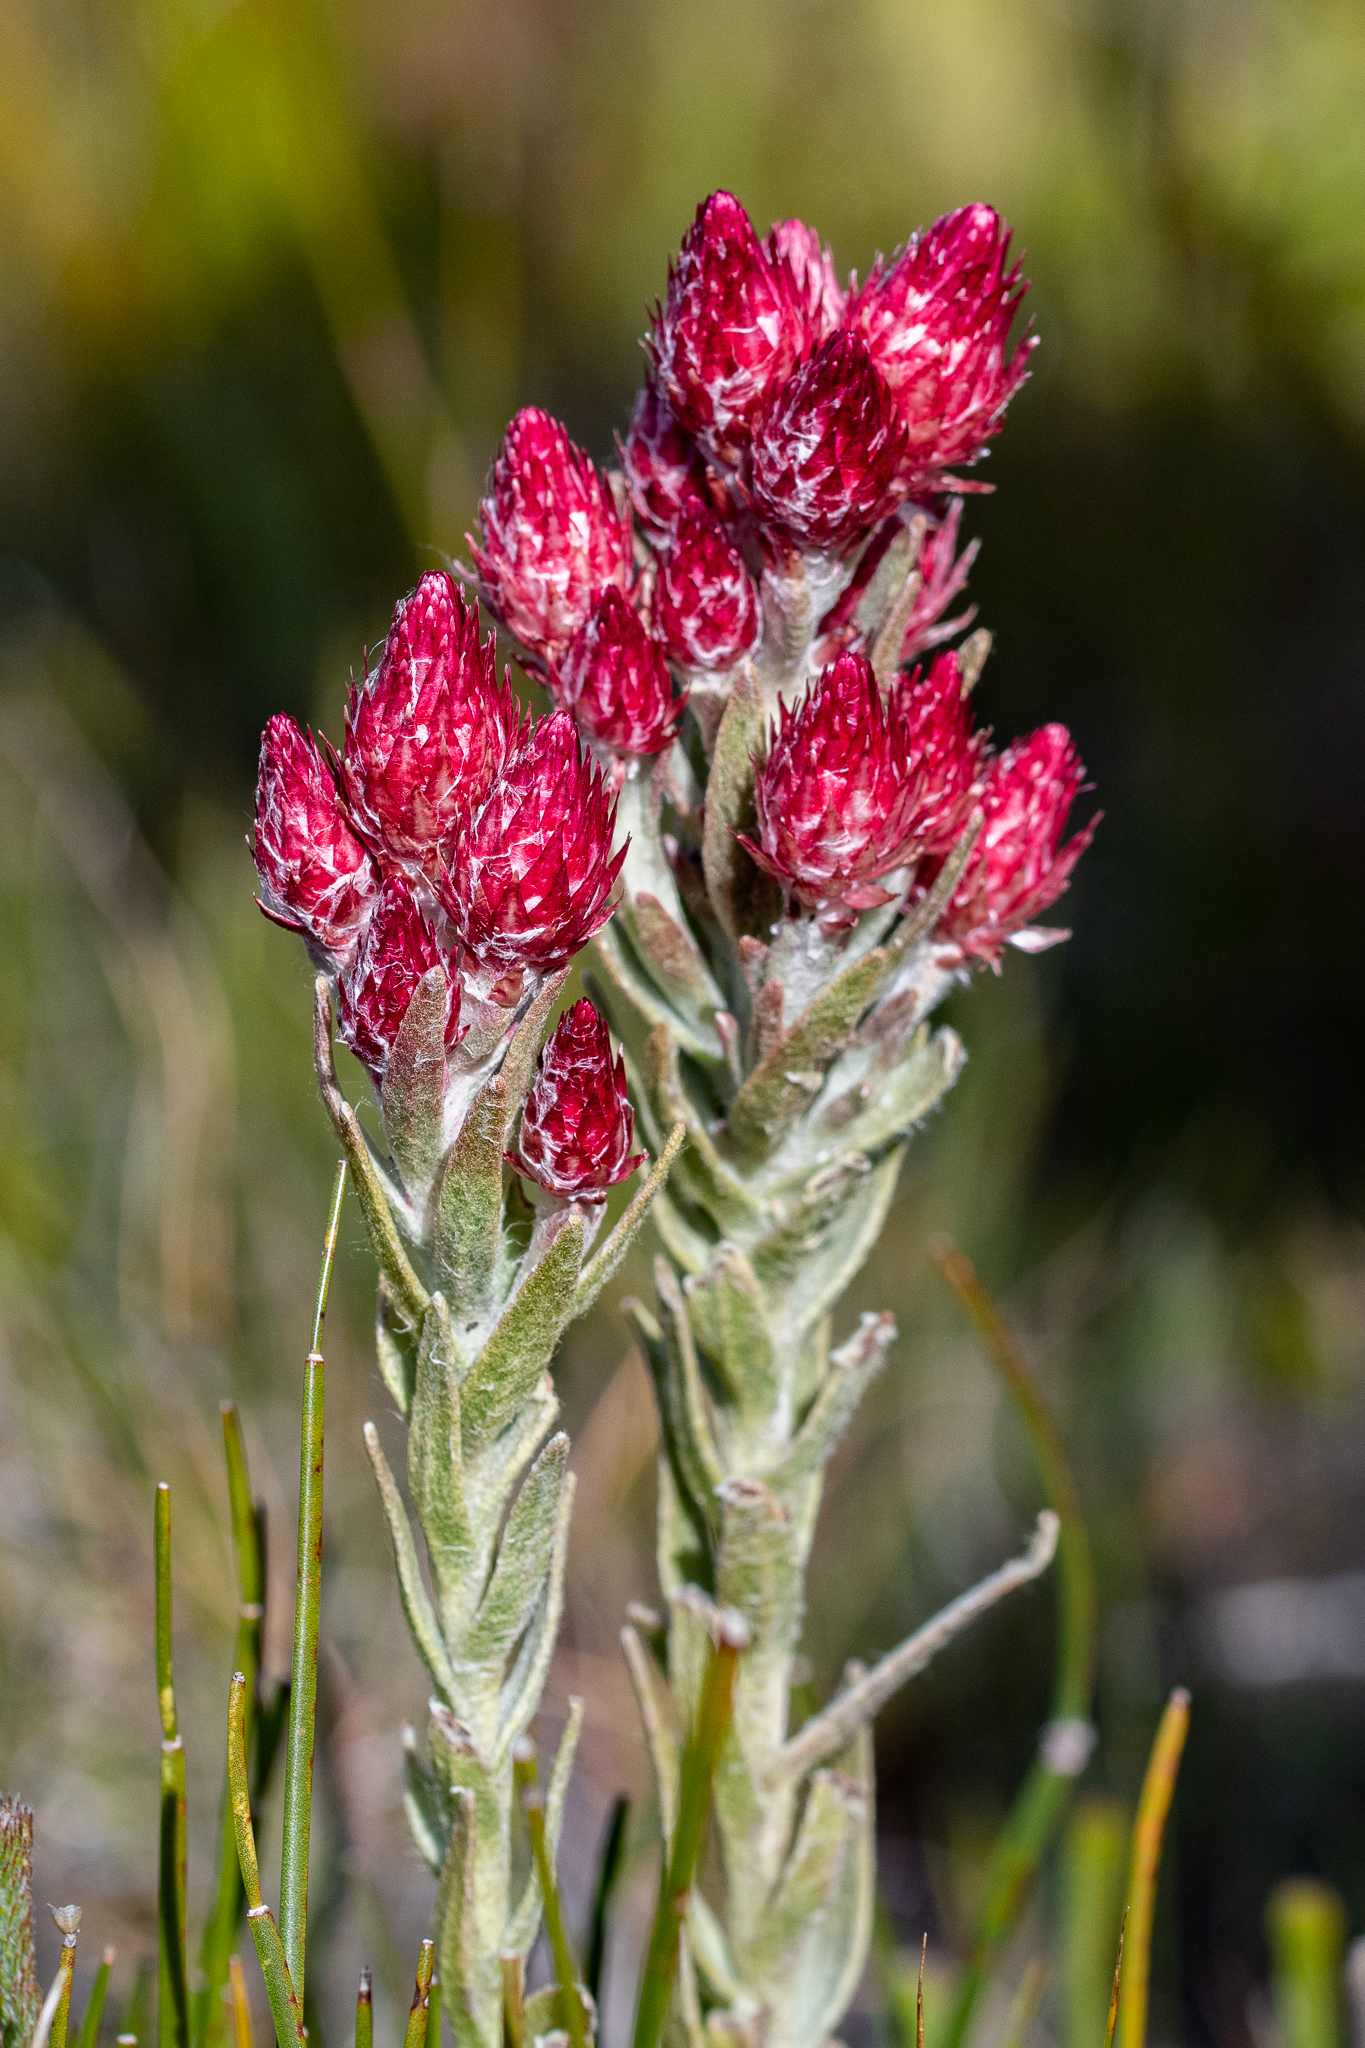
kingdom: Plantae
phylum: Tracheophyta
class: Magnoliopsida
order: Asterales
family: Asteraceae
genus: Syncarpha
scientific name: Syncarpha zeyheri
